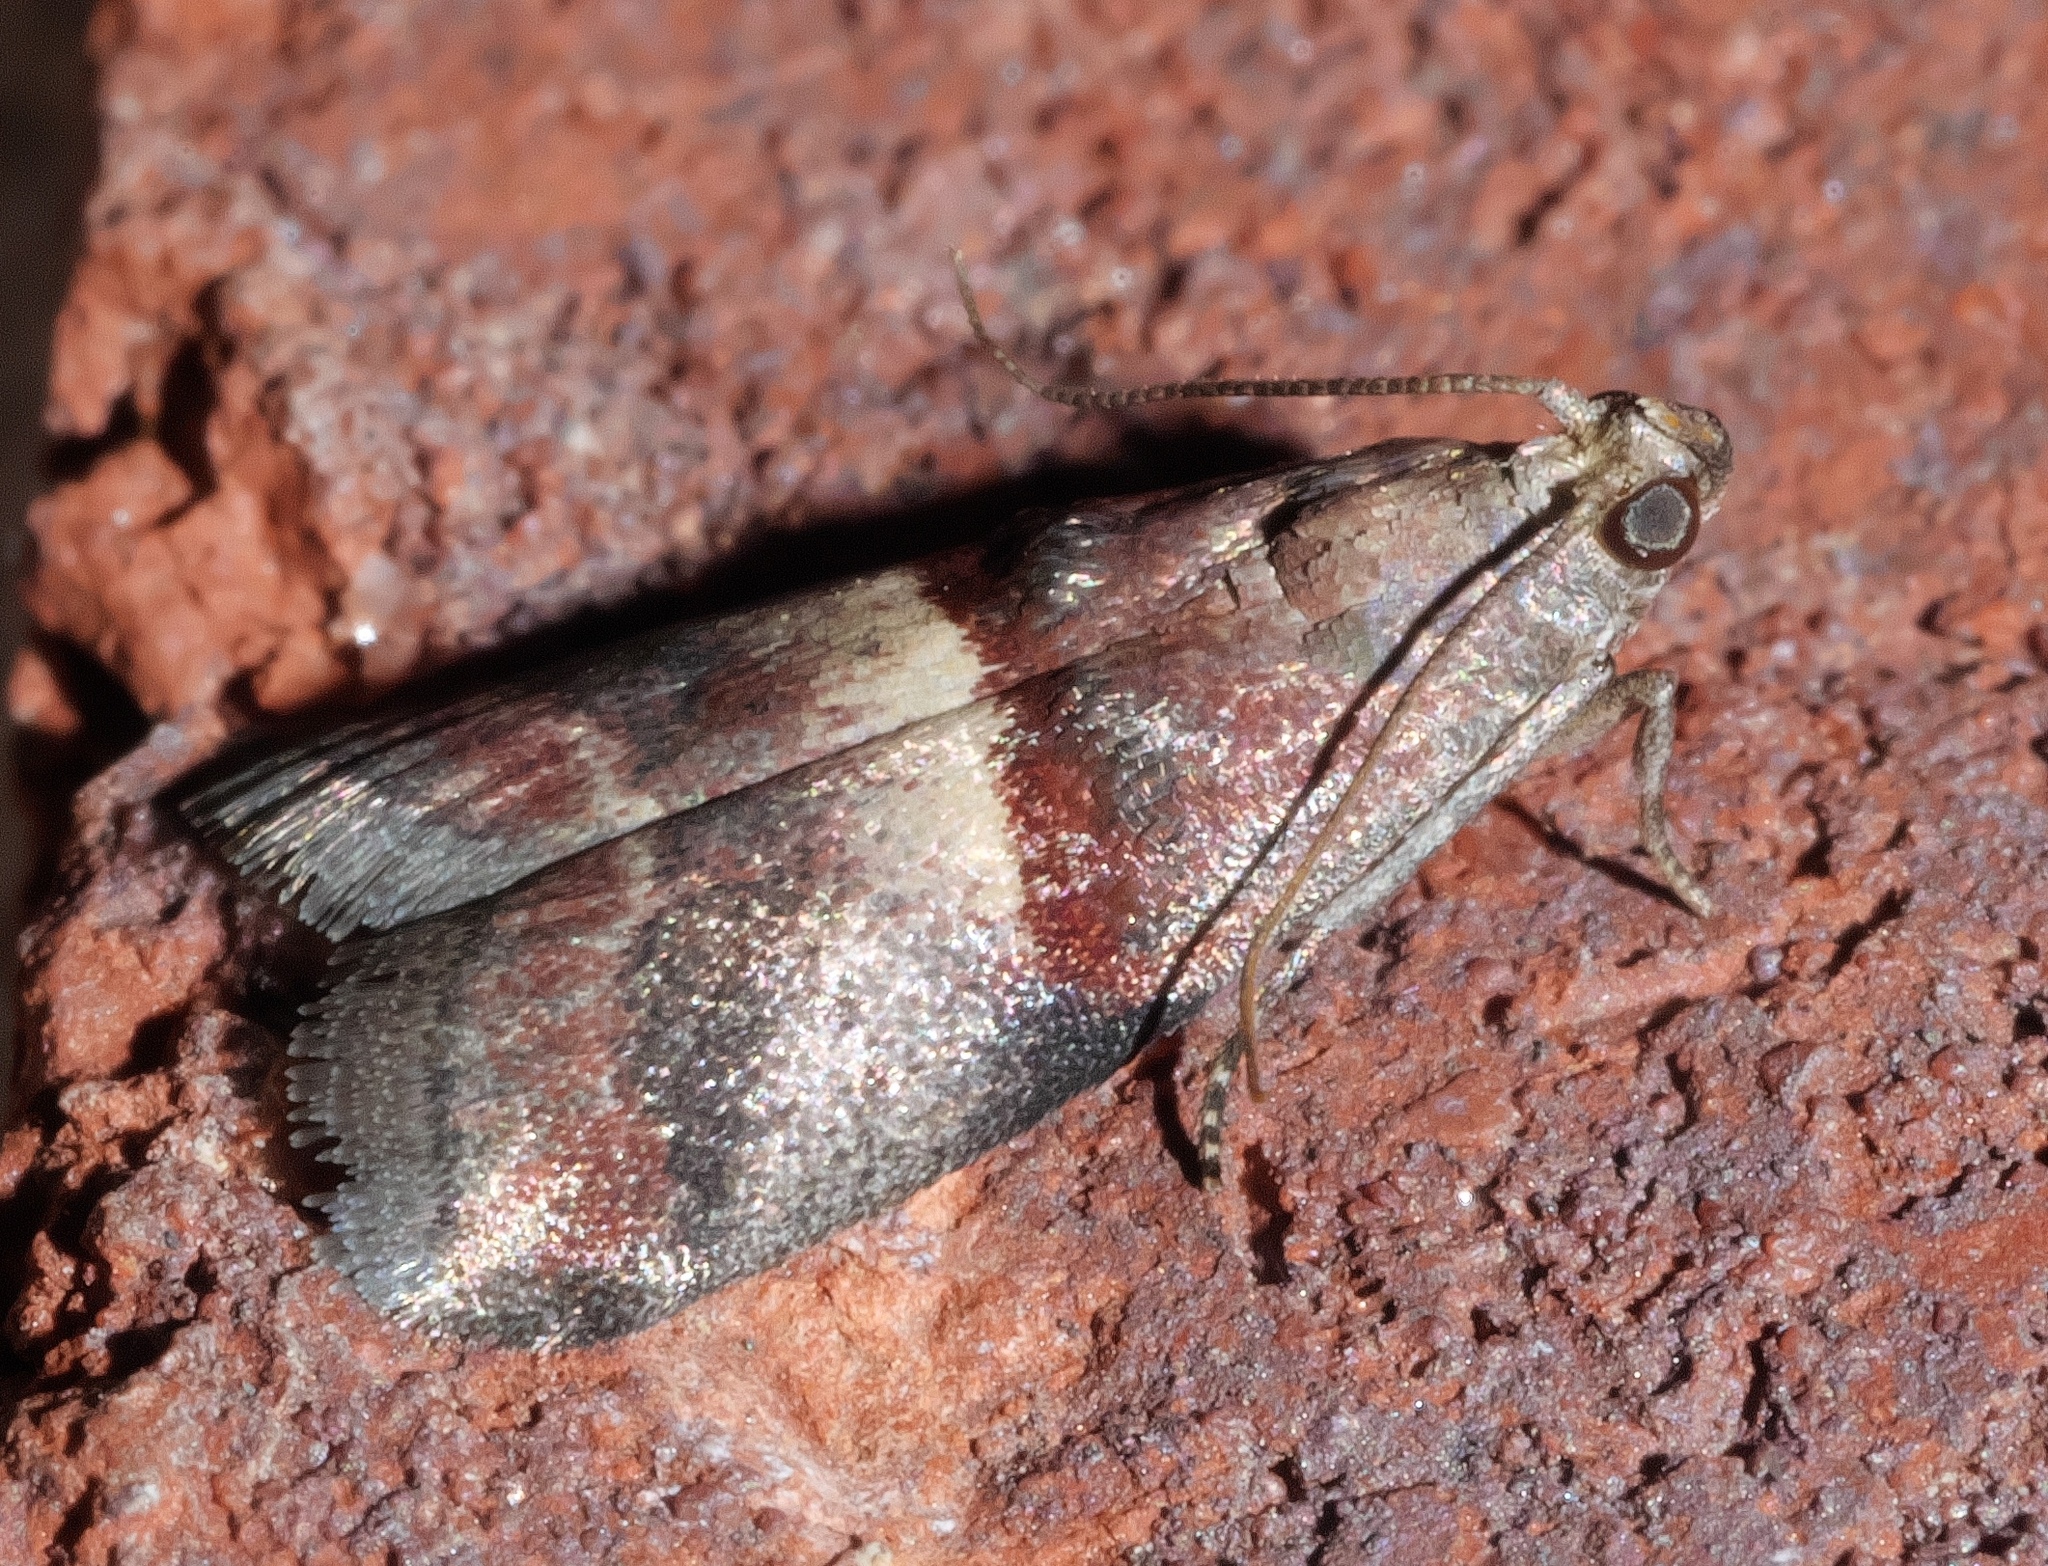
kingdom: Animalia
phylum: Arthropoda
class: Insecta
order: Lepidoptera
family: Pyralidae
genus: Acrobasis
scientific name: Acrobasis exsulella
